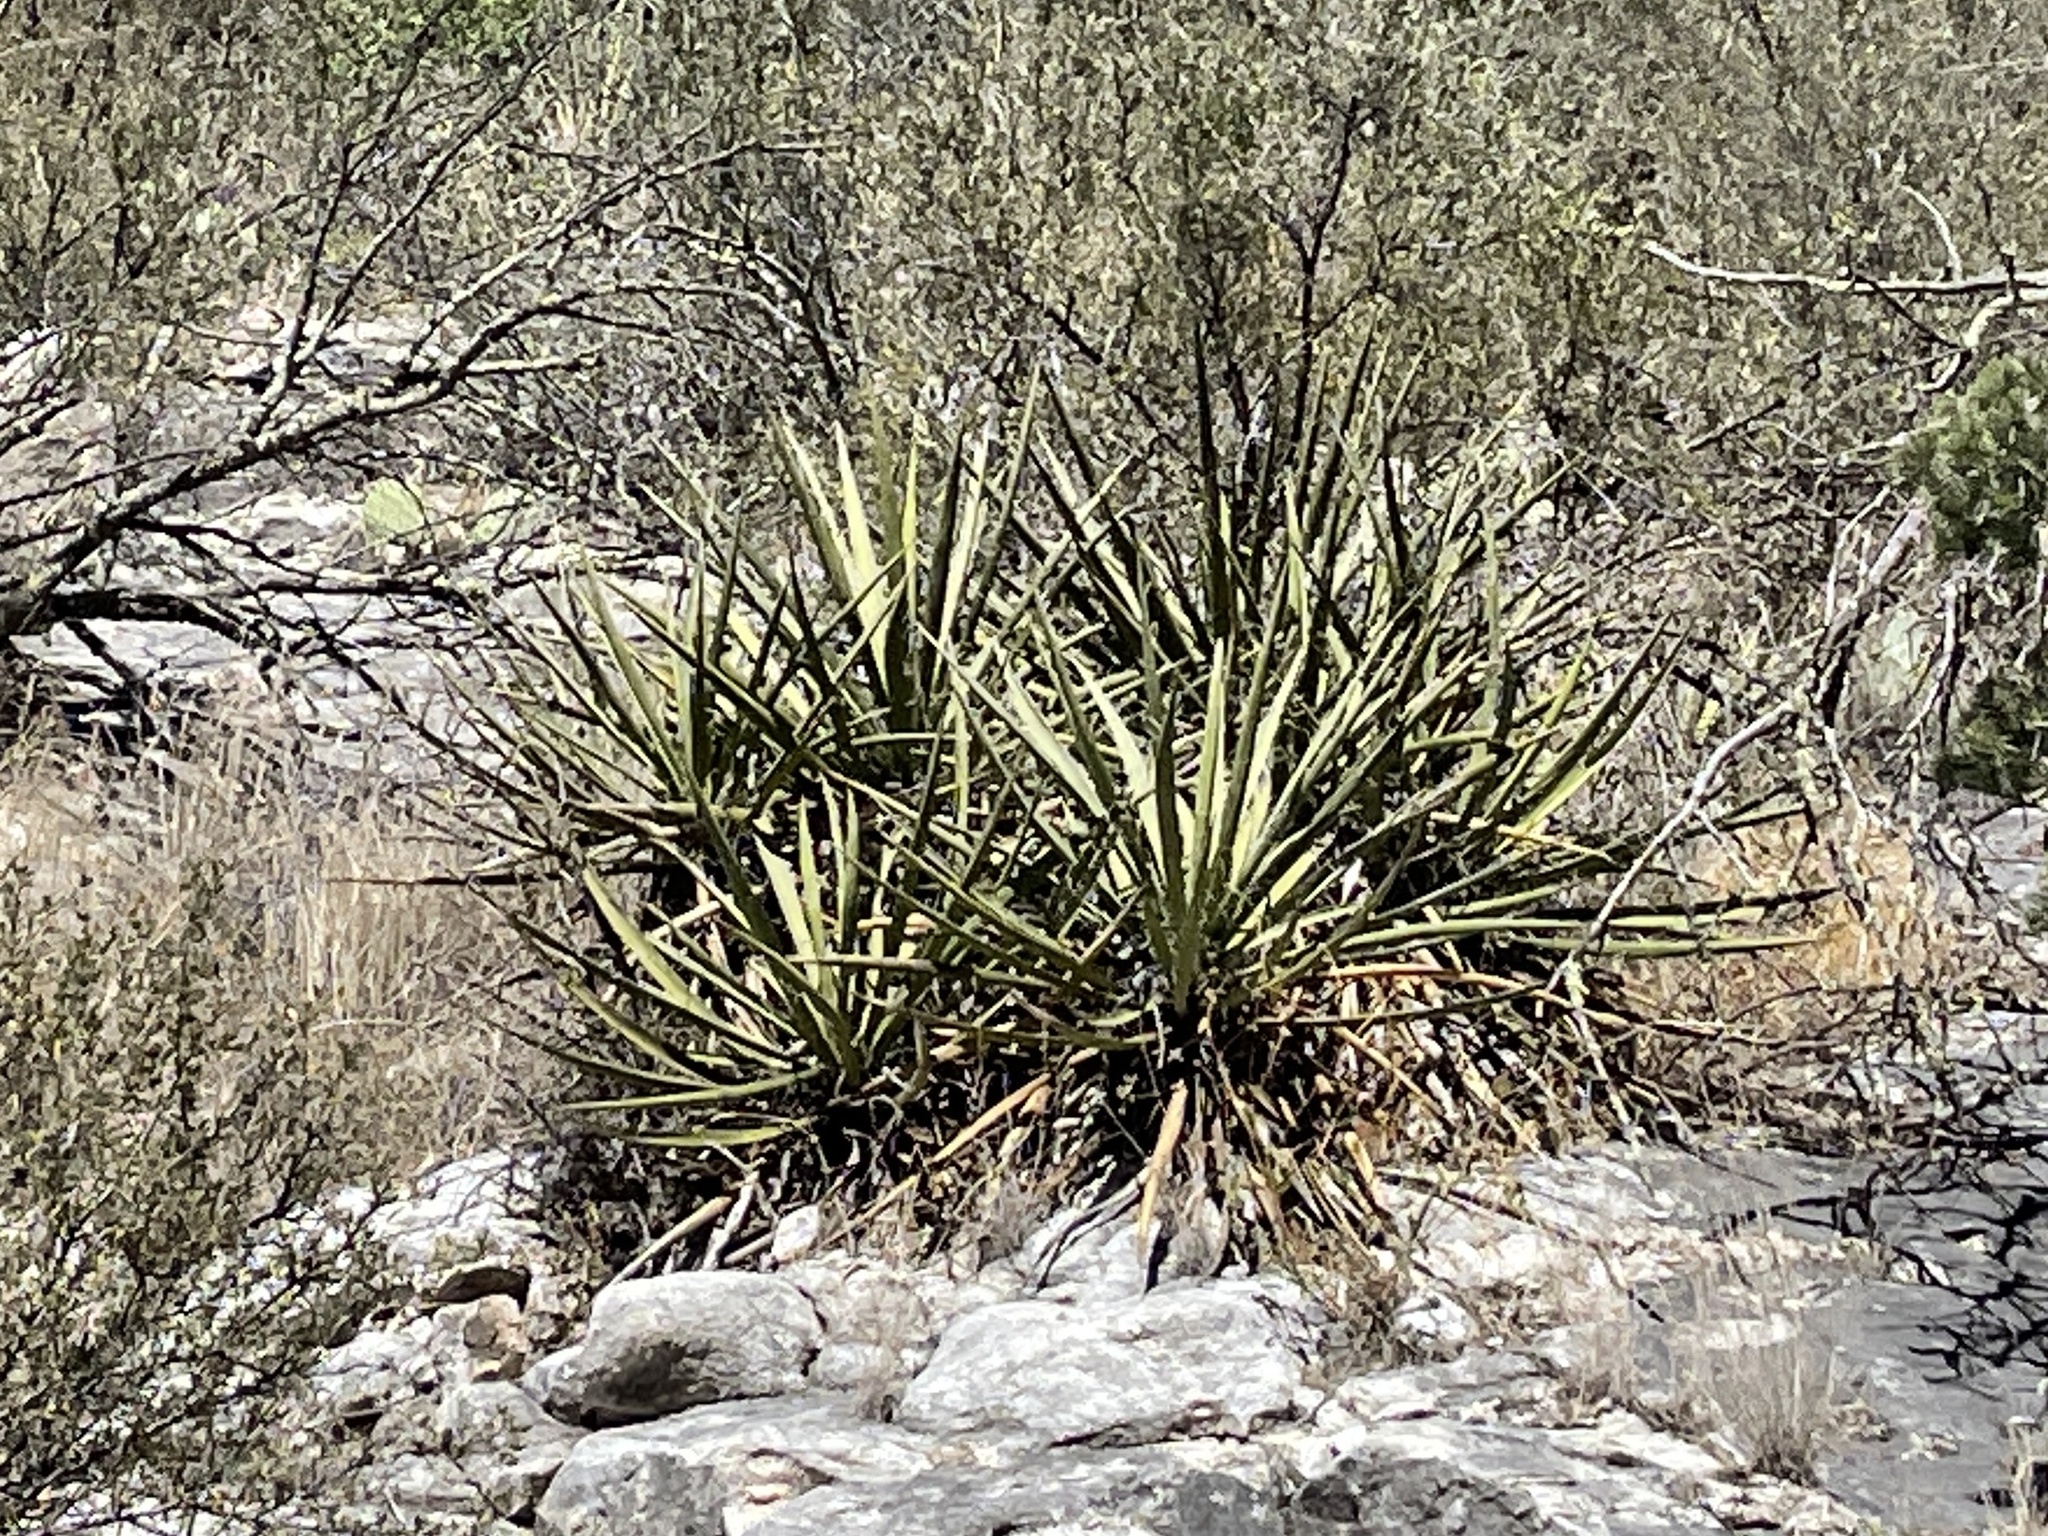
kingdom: Plantae
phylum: Tracheophyta
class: Liliopsida
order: Asparagales
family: Asparagaceae
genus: Yucca
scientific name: Yucca baccata
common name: Banana yucca
